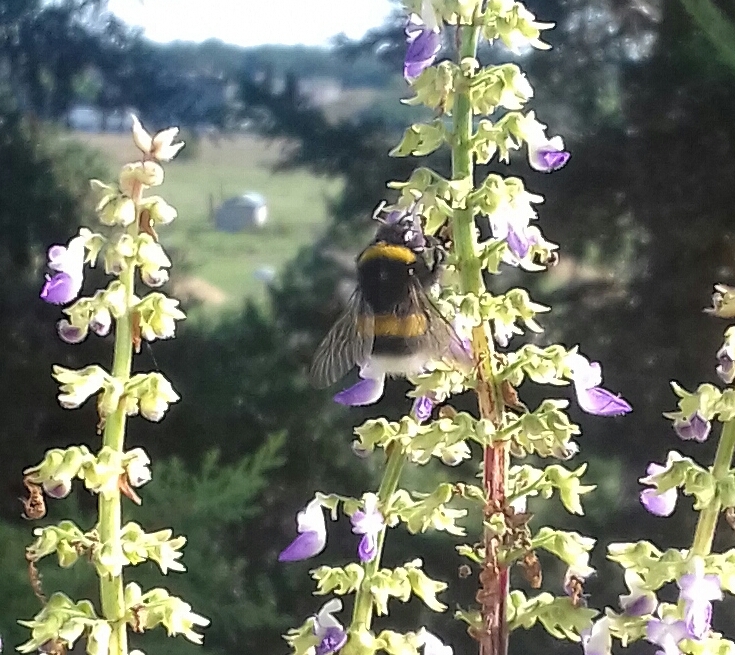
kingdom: Animalia
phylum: Arthropoda
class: Insecta
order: Hymenoptera
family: Apidae
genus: Bombus
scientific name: Bombus lucorum
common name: White-tailed bumblebee
